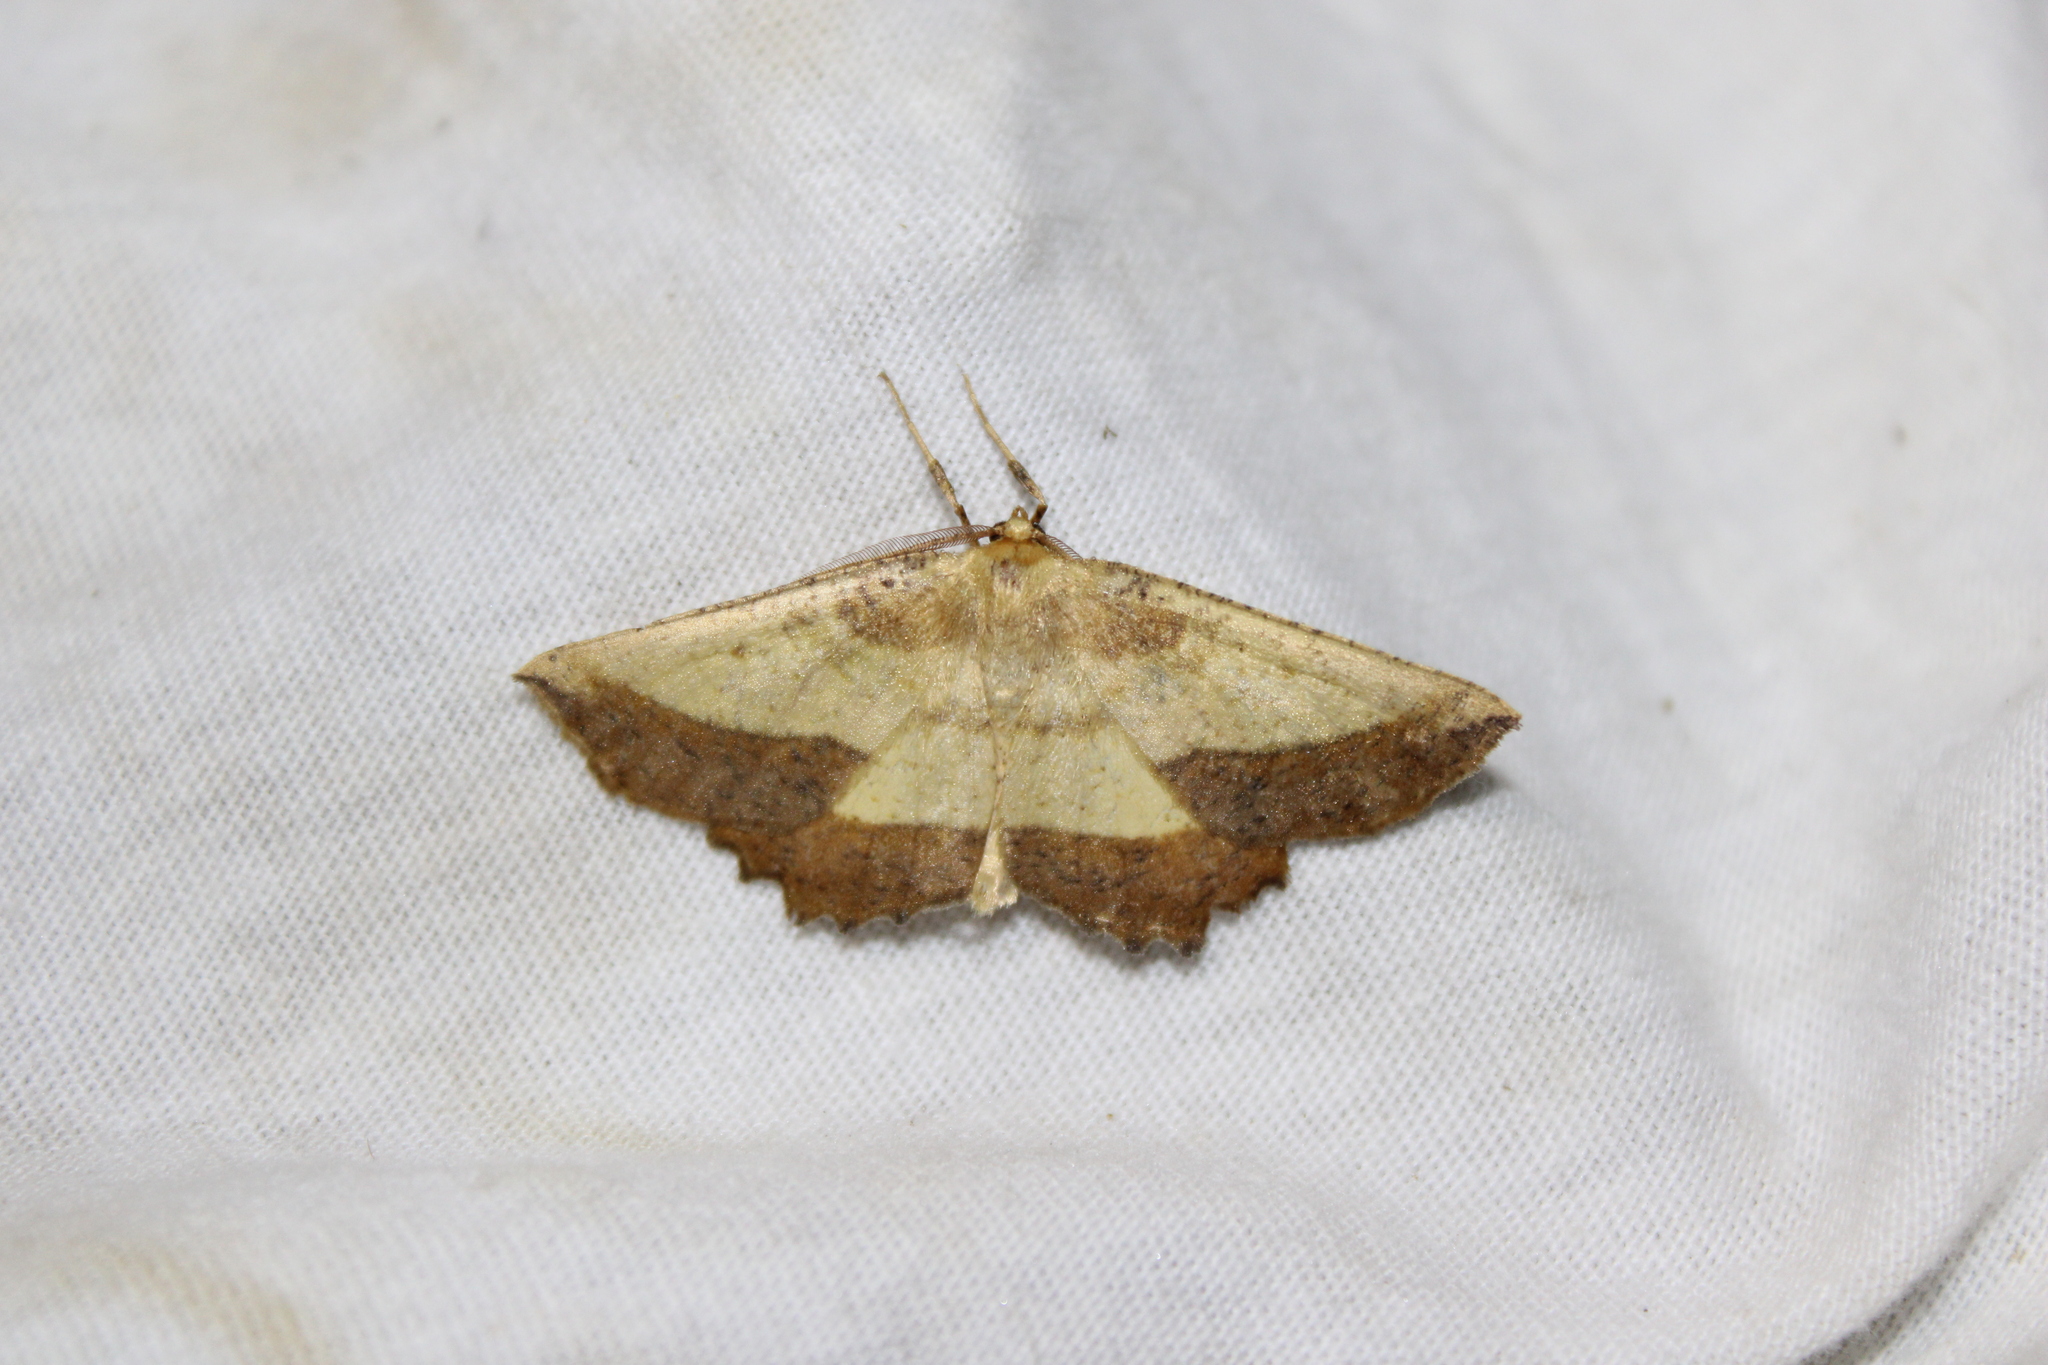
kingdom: Animalia
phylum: Arthropoda
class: Insecta
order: Lepidoptera
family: Geometridae
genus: Euchlaena
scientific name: Euchlaena serrata
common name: Saw wing
